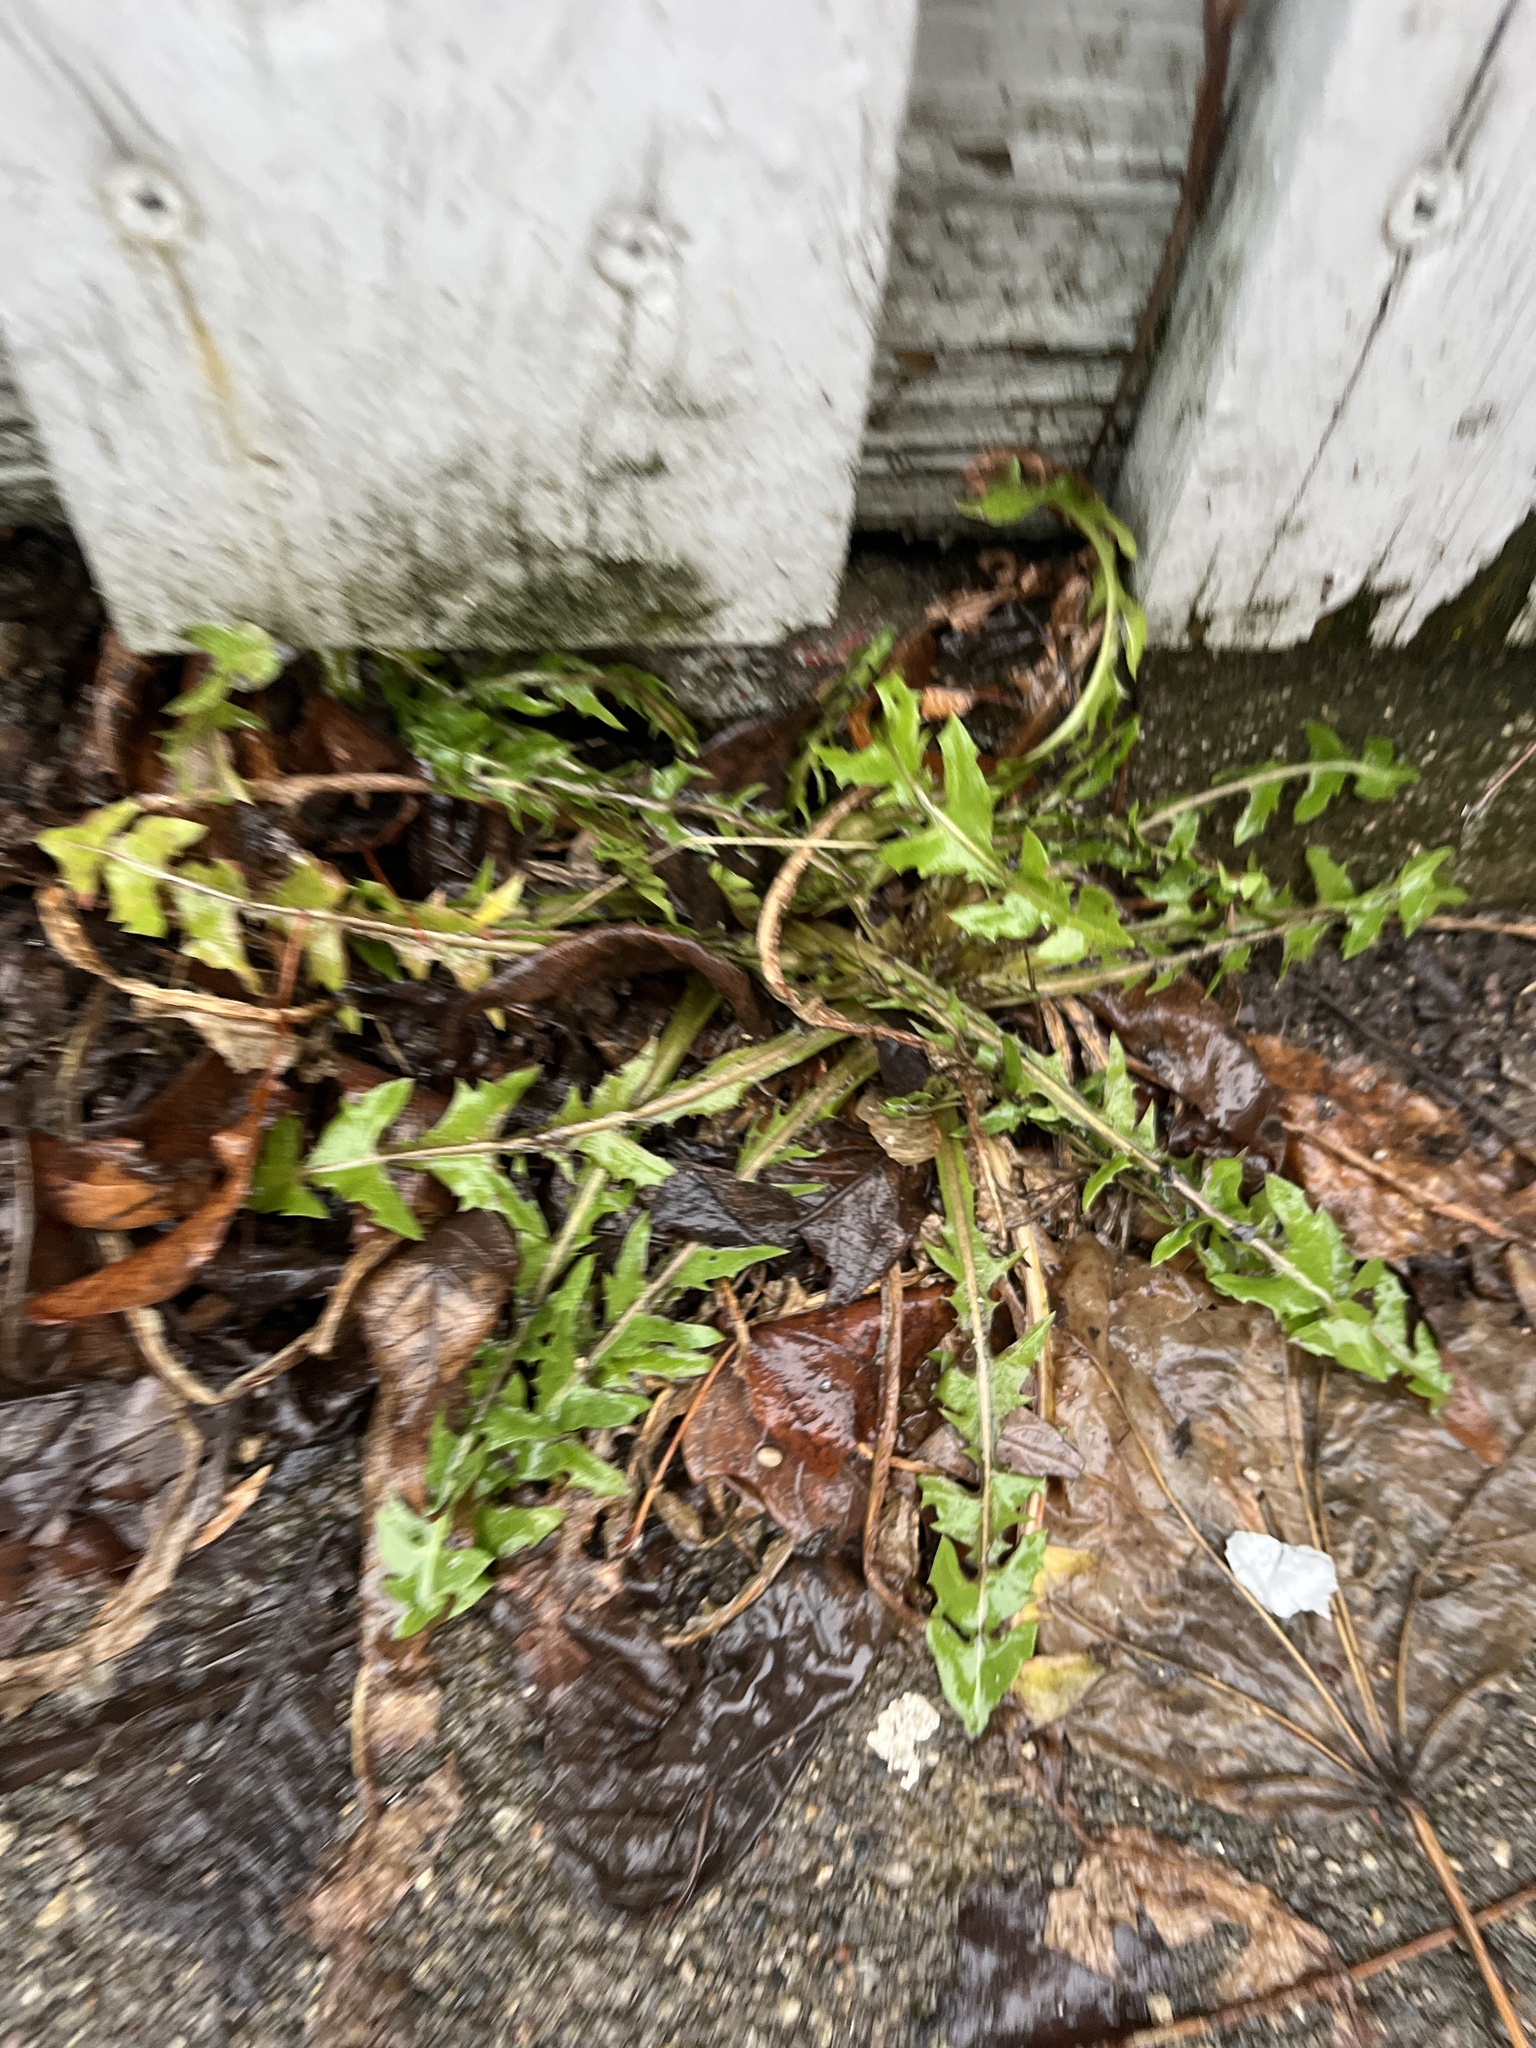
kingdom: Plantae
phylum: Tracheophyta
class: Magnoliopsida
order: Asterales
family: Asteraceae
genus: Taraxacum
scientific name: Taraxacum officinale
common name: Common dandelion
